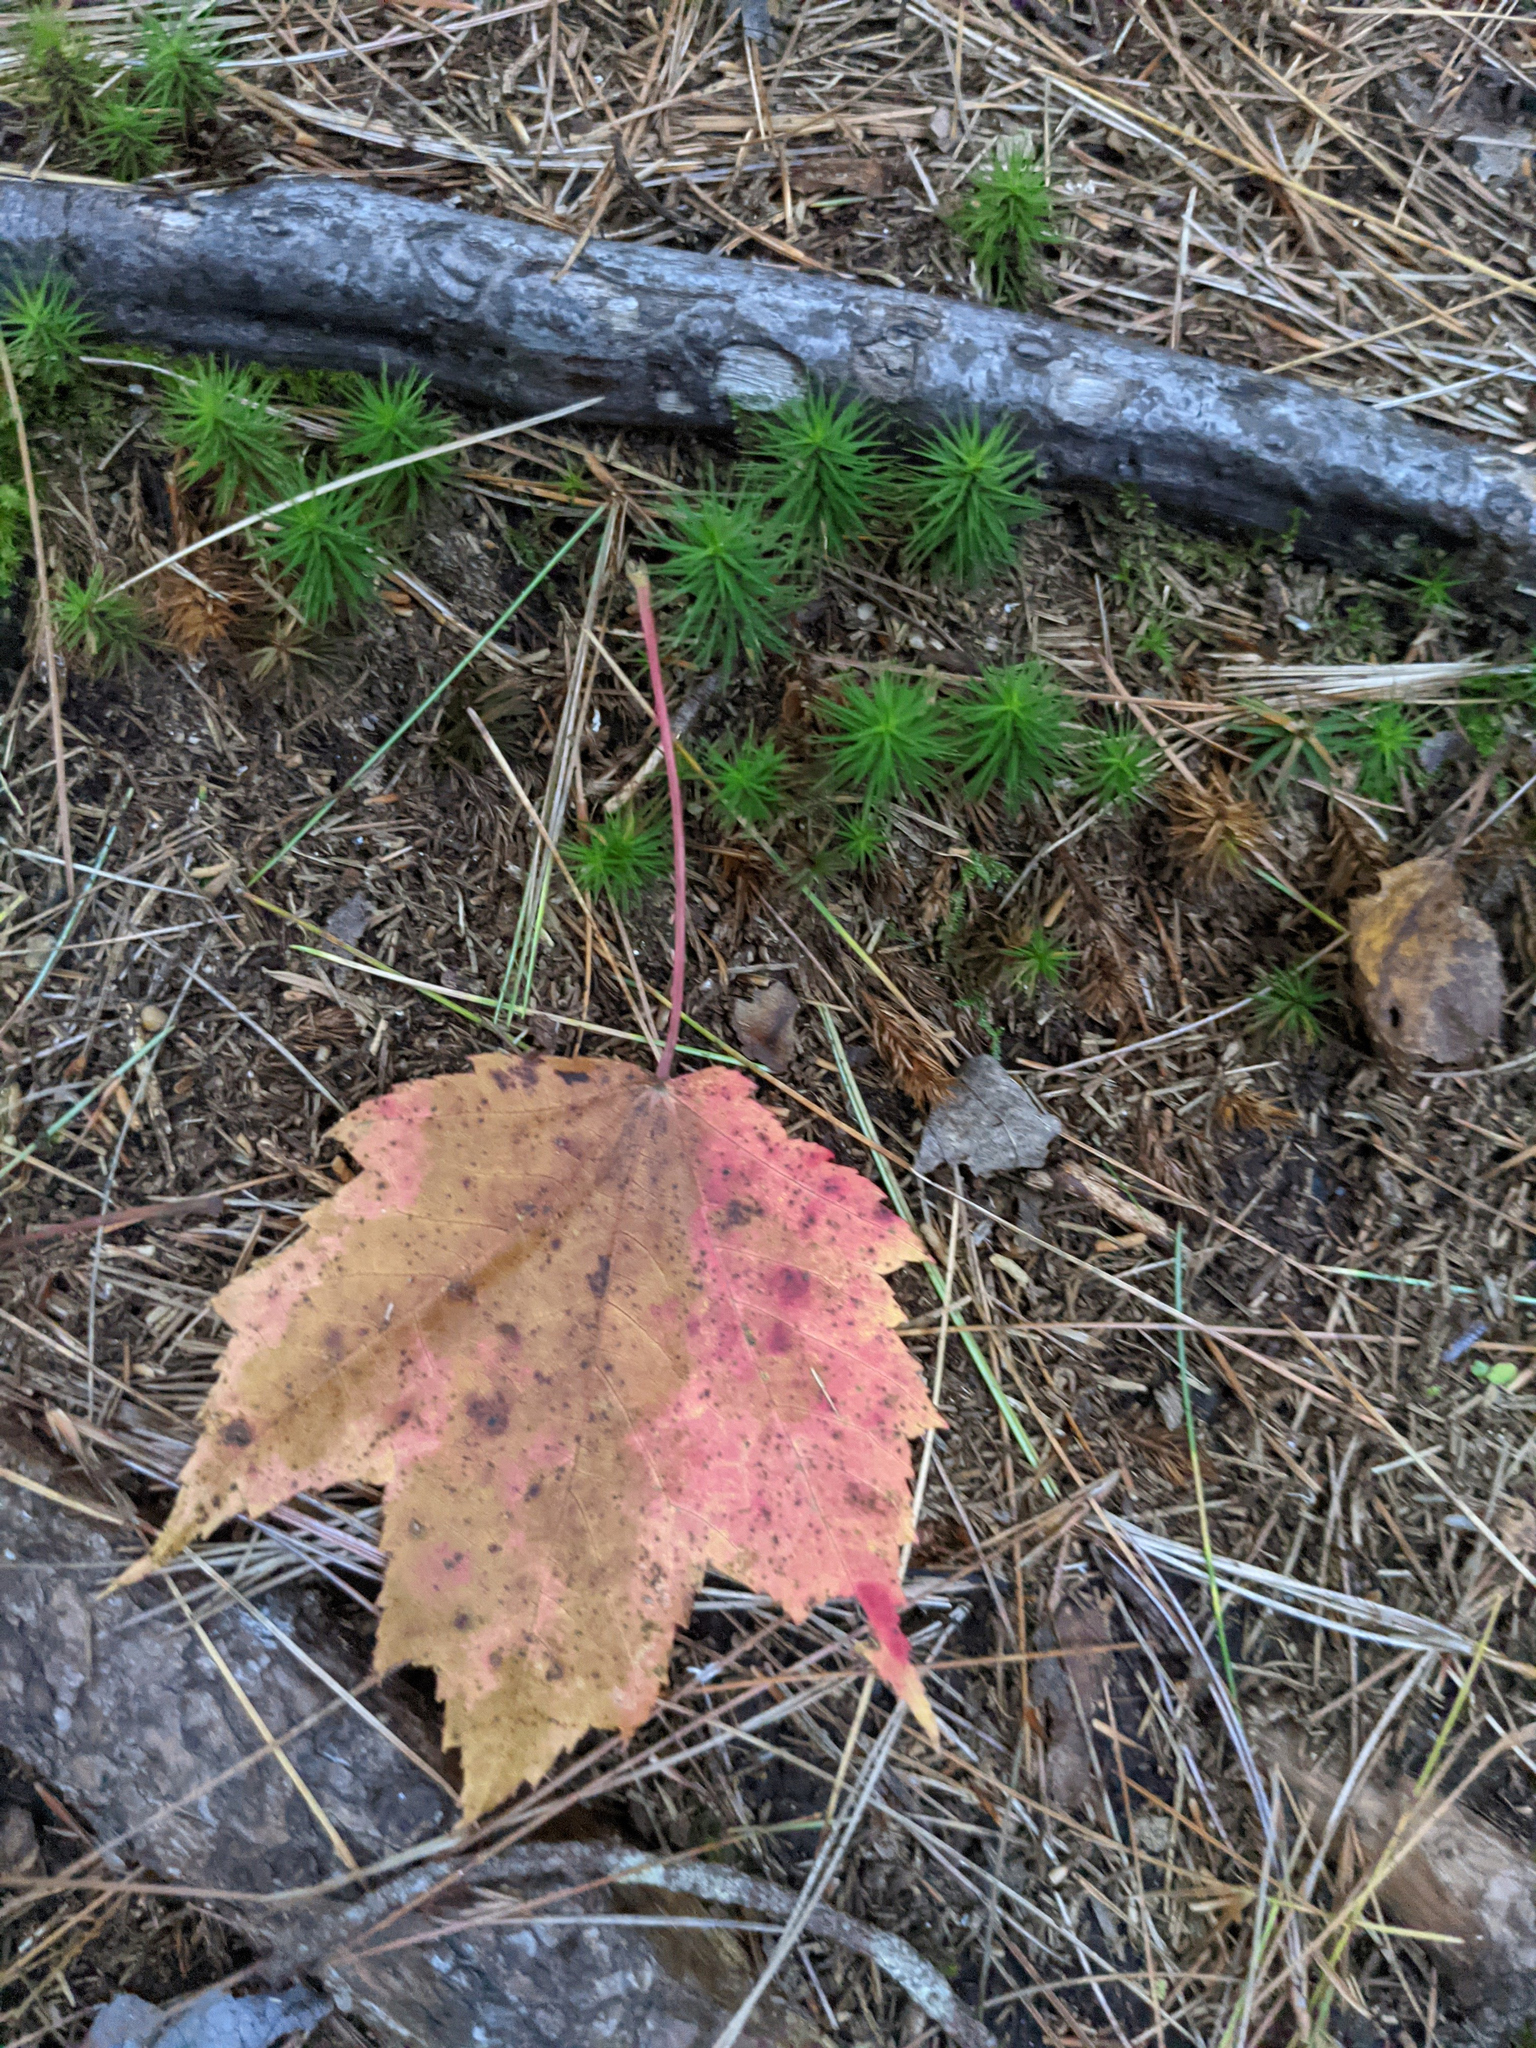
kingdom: Plantae
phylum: Tracheophyta
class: Magnoliopsida
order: Sapindales
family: Sapindaceae
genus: Acer
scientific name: Acer rubrum
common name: Red maple
